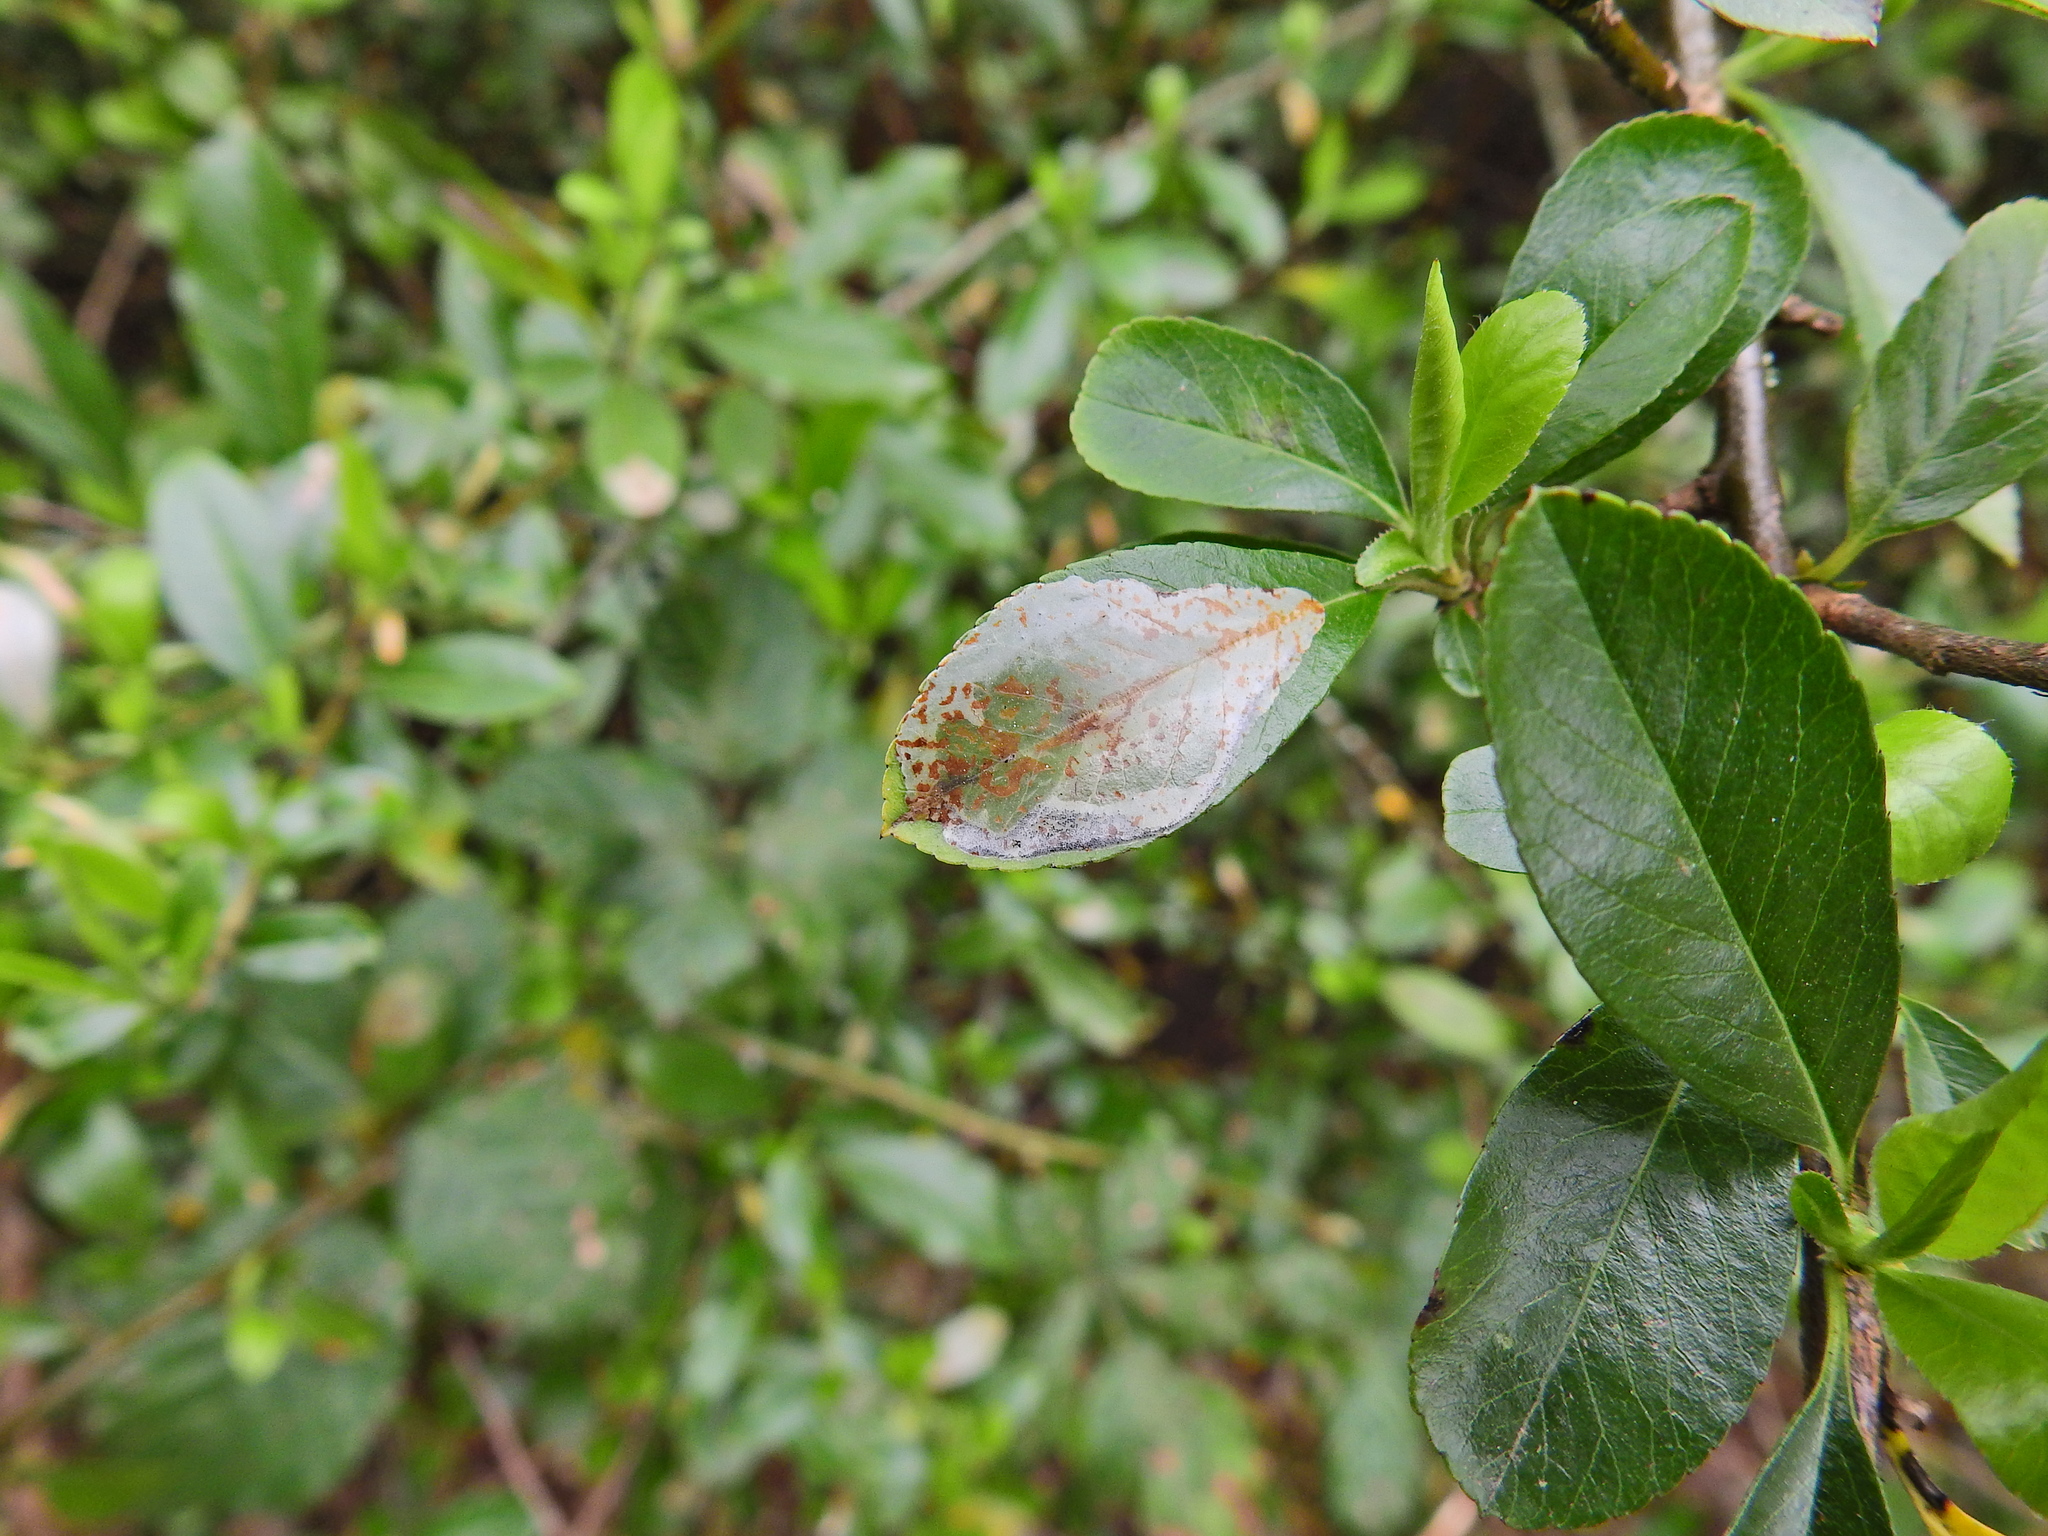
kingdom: Animalia
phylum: Arthropoda
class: Insecta
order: Lepidoptera
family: Gracillariidae
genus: Phyllonorycter
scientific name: Phyllonorycter leucographella
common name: Firethorn leaf-miner
